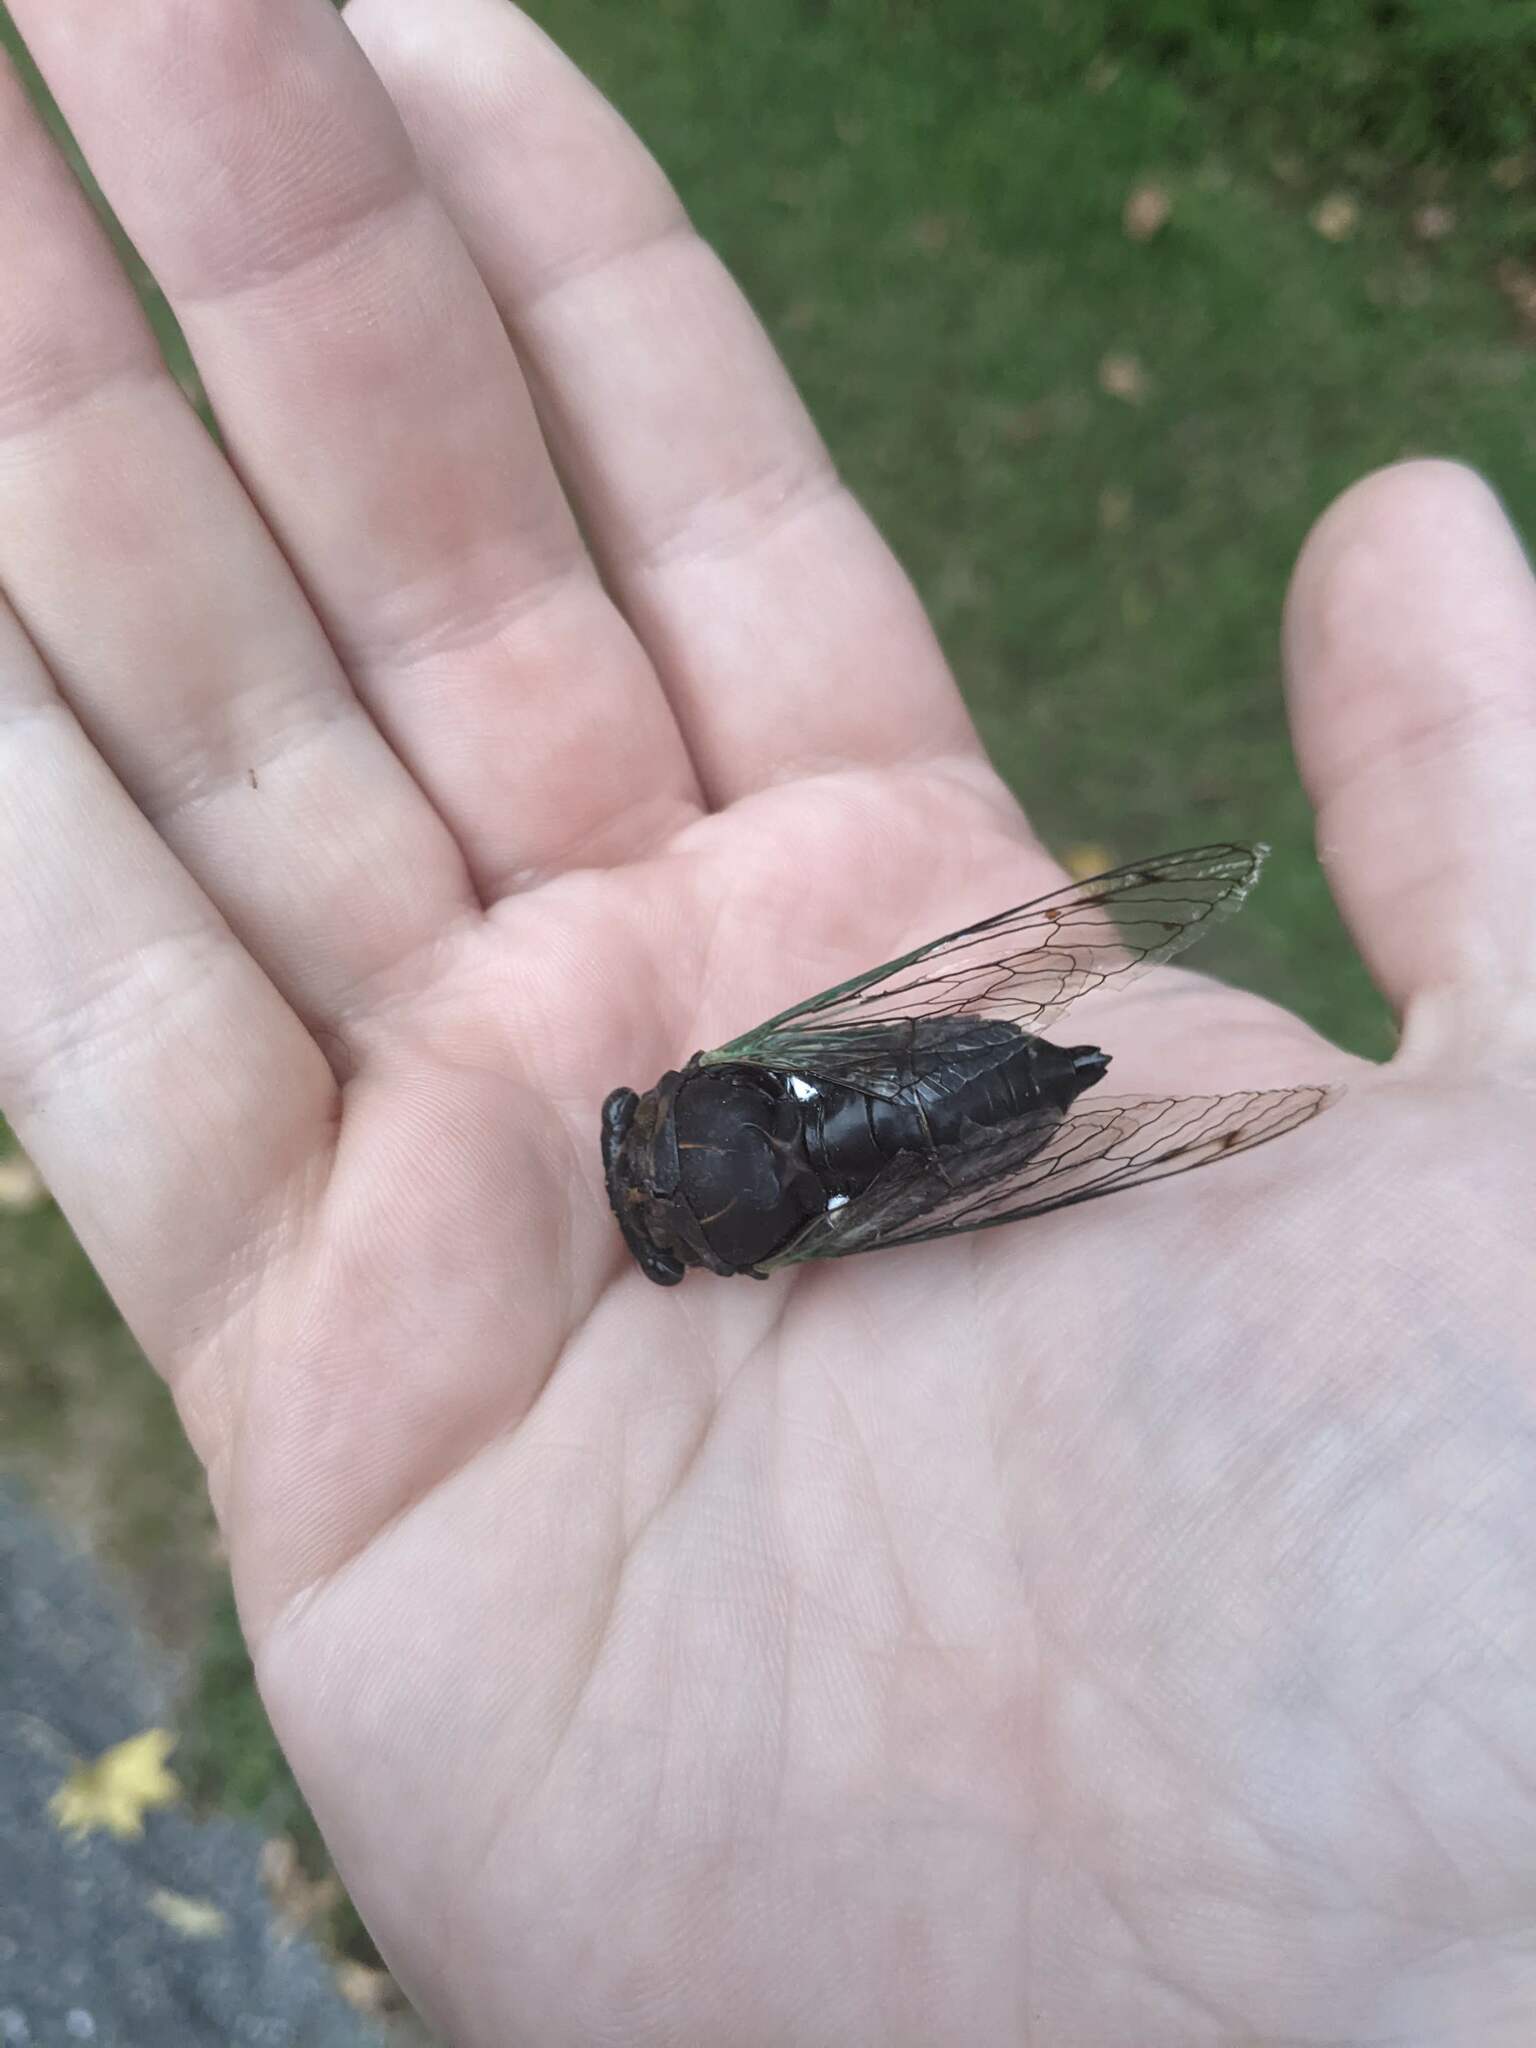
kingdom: Animalia
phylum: Arthropoda
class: Insecta
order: Hemiptera
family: Cicadidae
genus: Neotibicen
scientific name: Neotibicen tibicen
